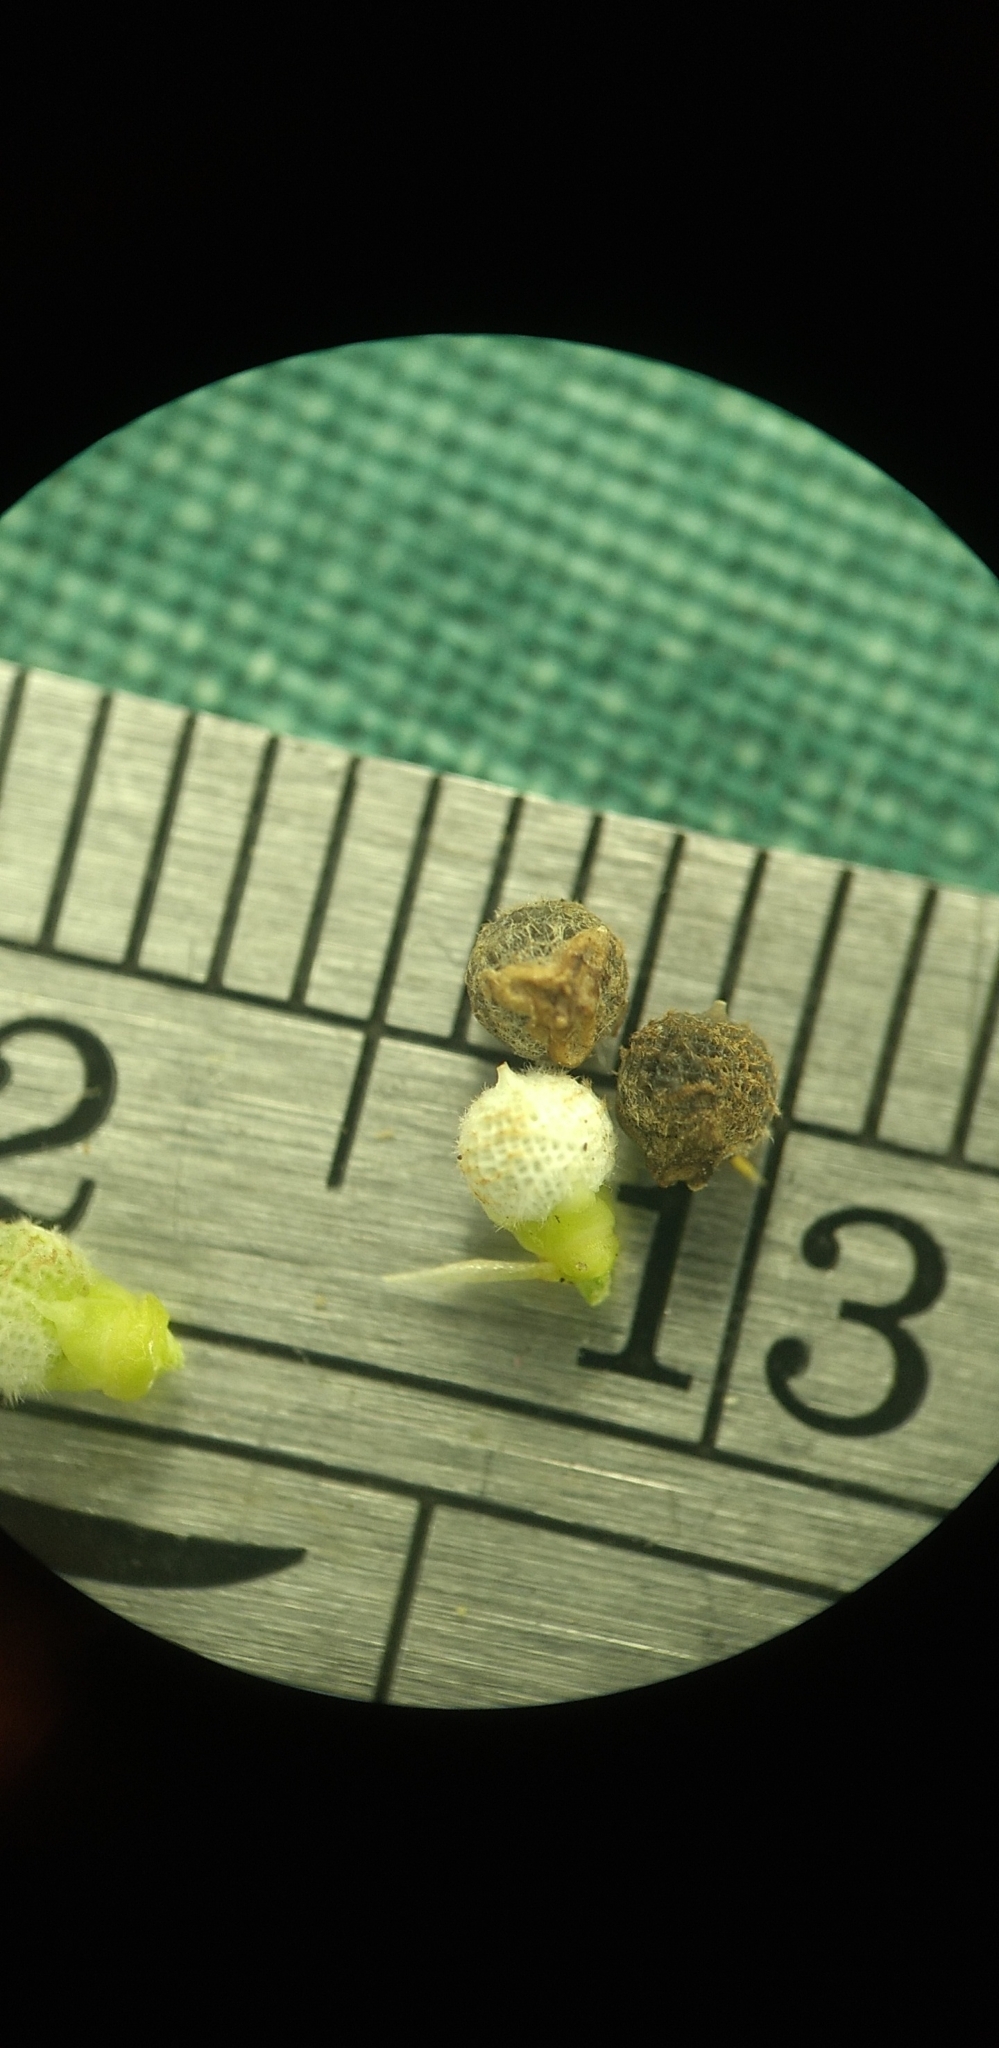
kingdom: Plantae
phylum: Tracheophyta
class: Liliopsida
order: Poales
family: Cyperaceae
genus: Scleria
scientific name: Scleria muehlenbergii
